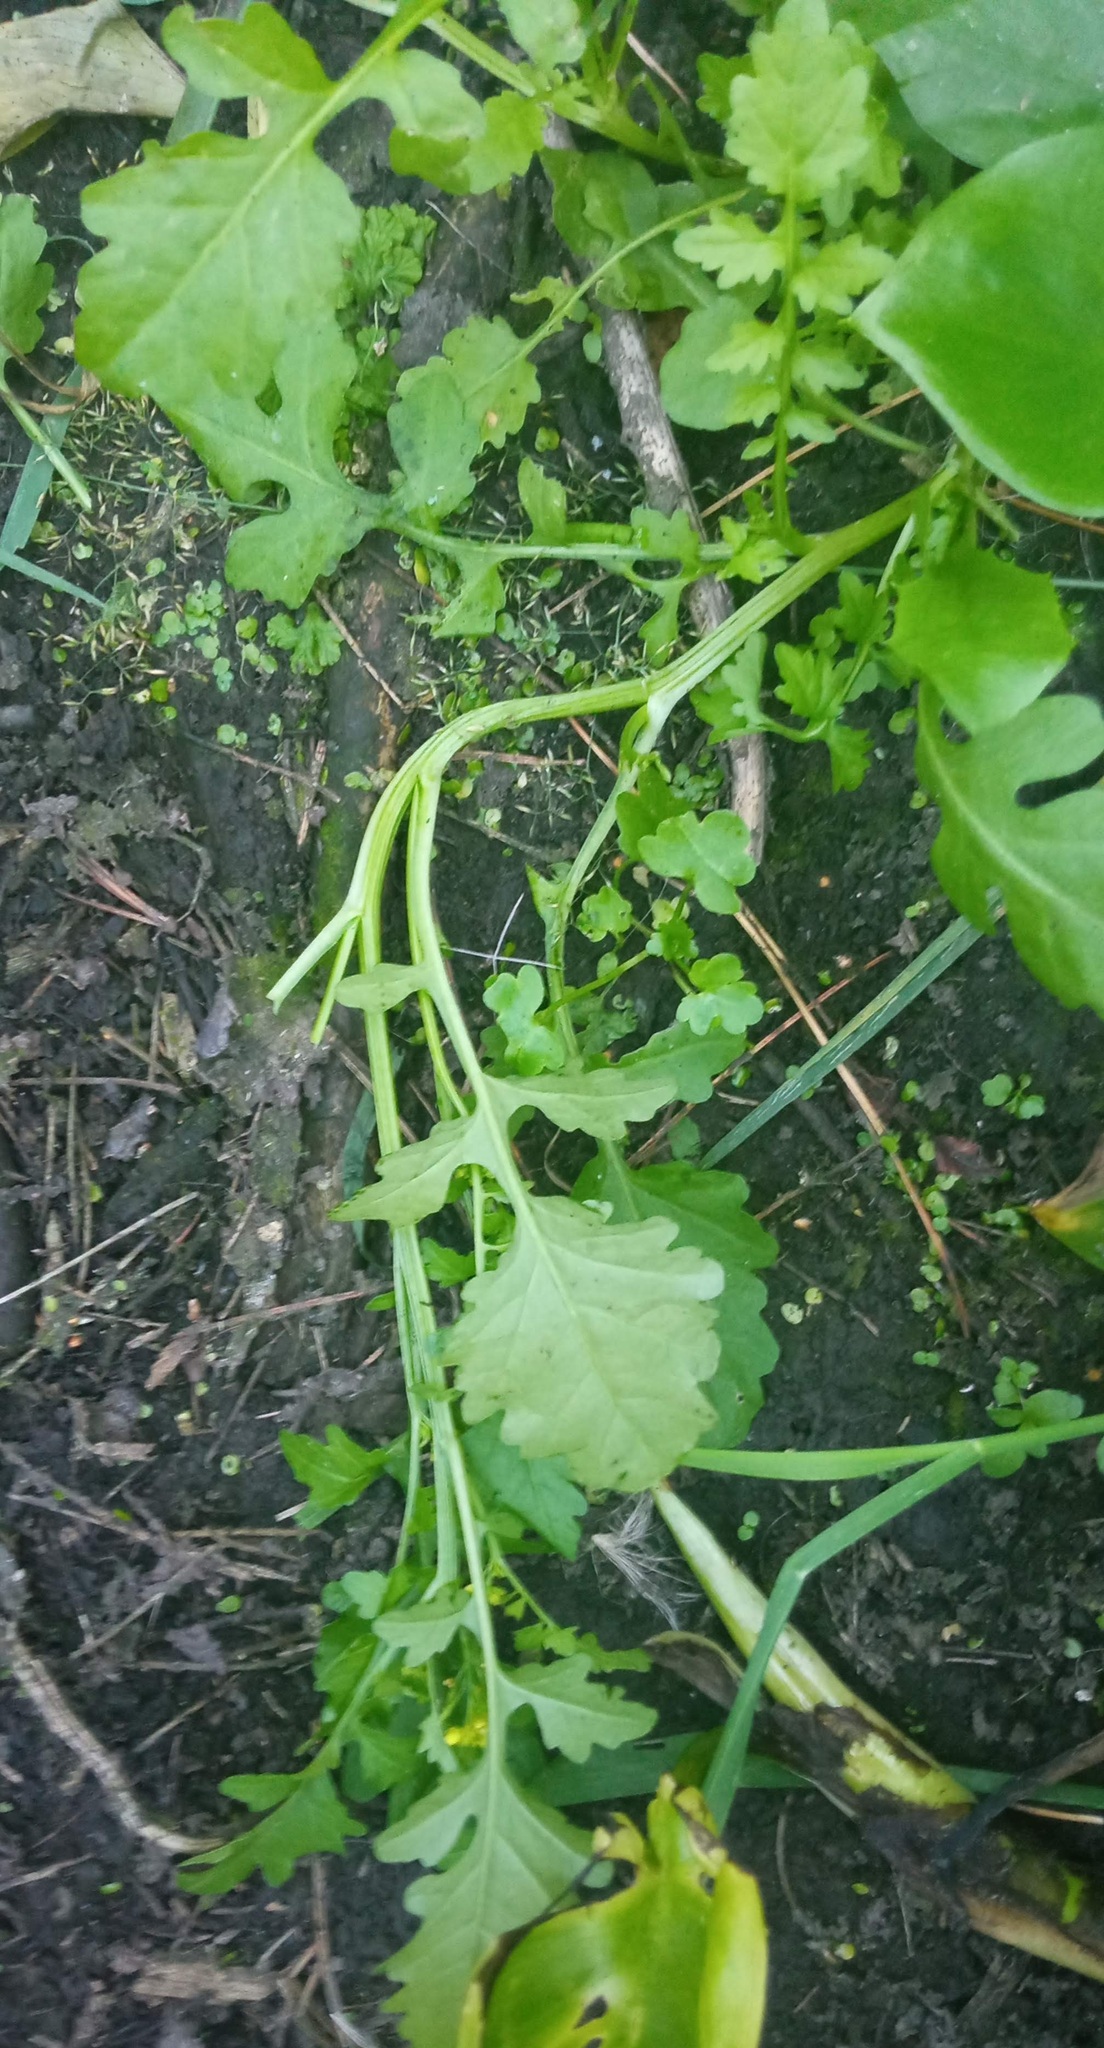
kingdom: Plantae
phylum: Tracheophyta
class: Magnoliopsida
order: Brassicales
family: Brassicaceae
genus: Rorippa
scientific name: Rorippa palustris
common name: Marsh yellow-cress
